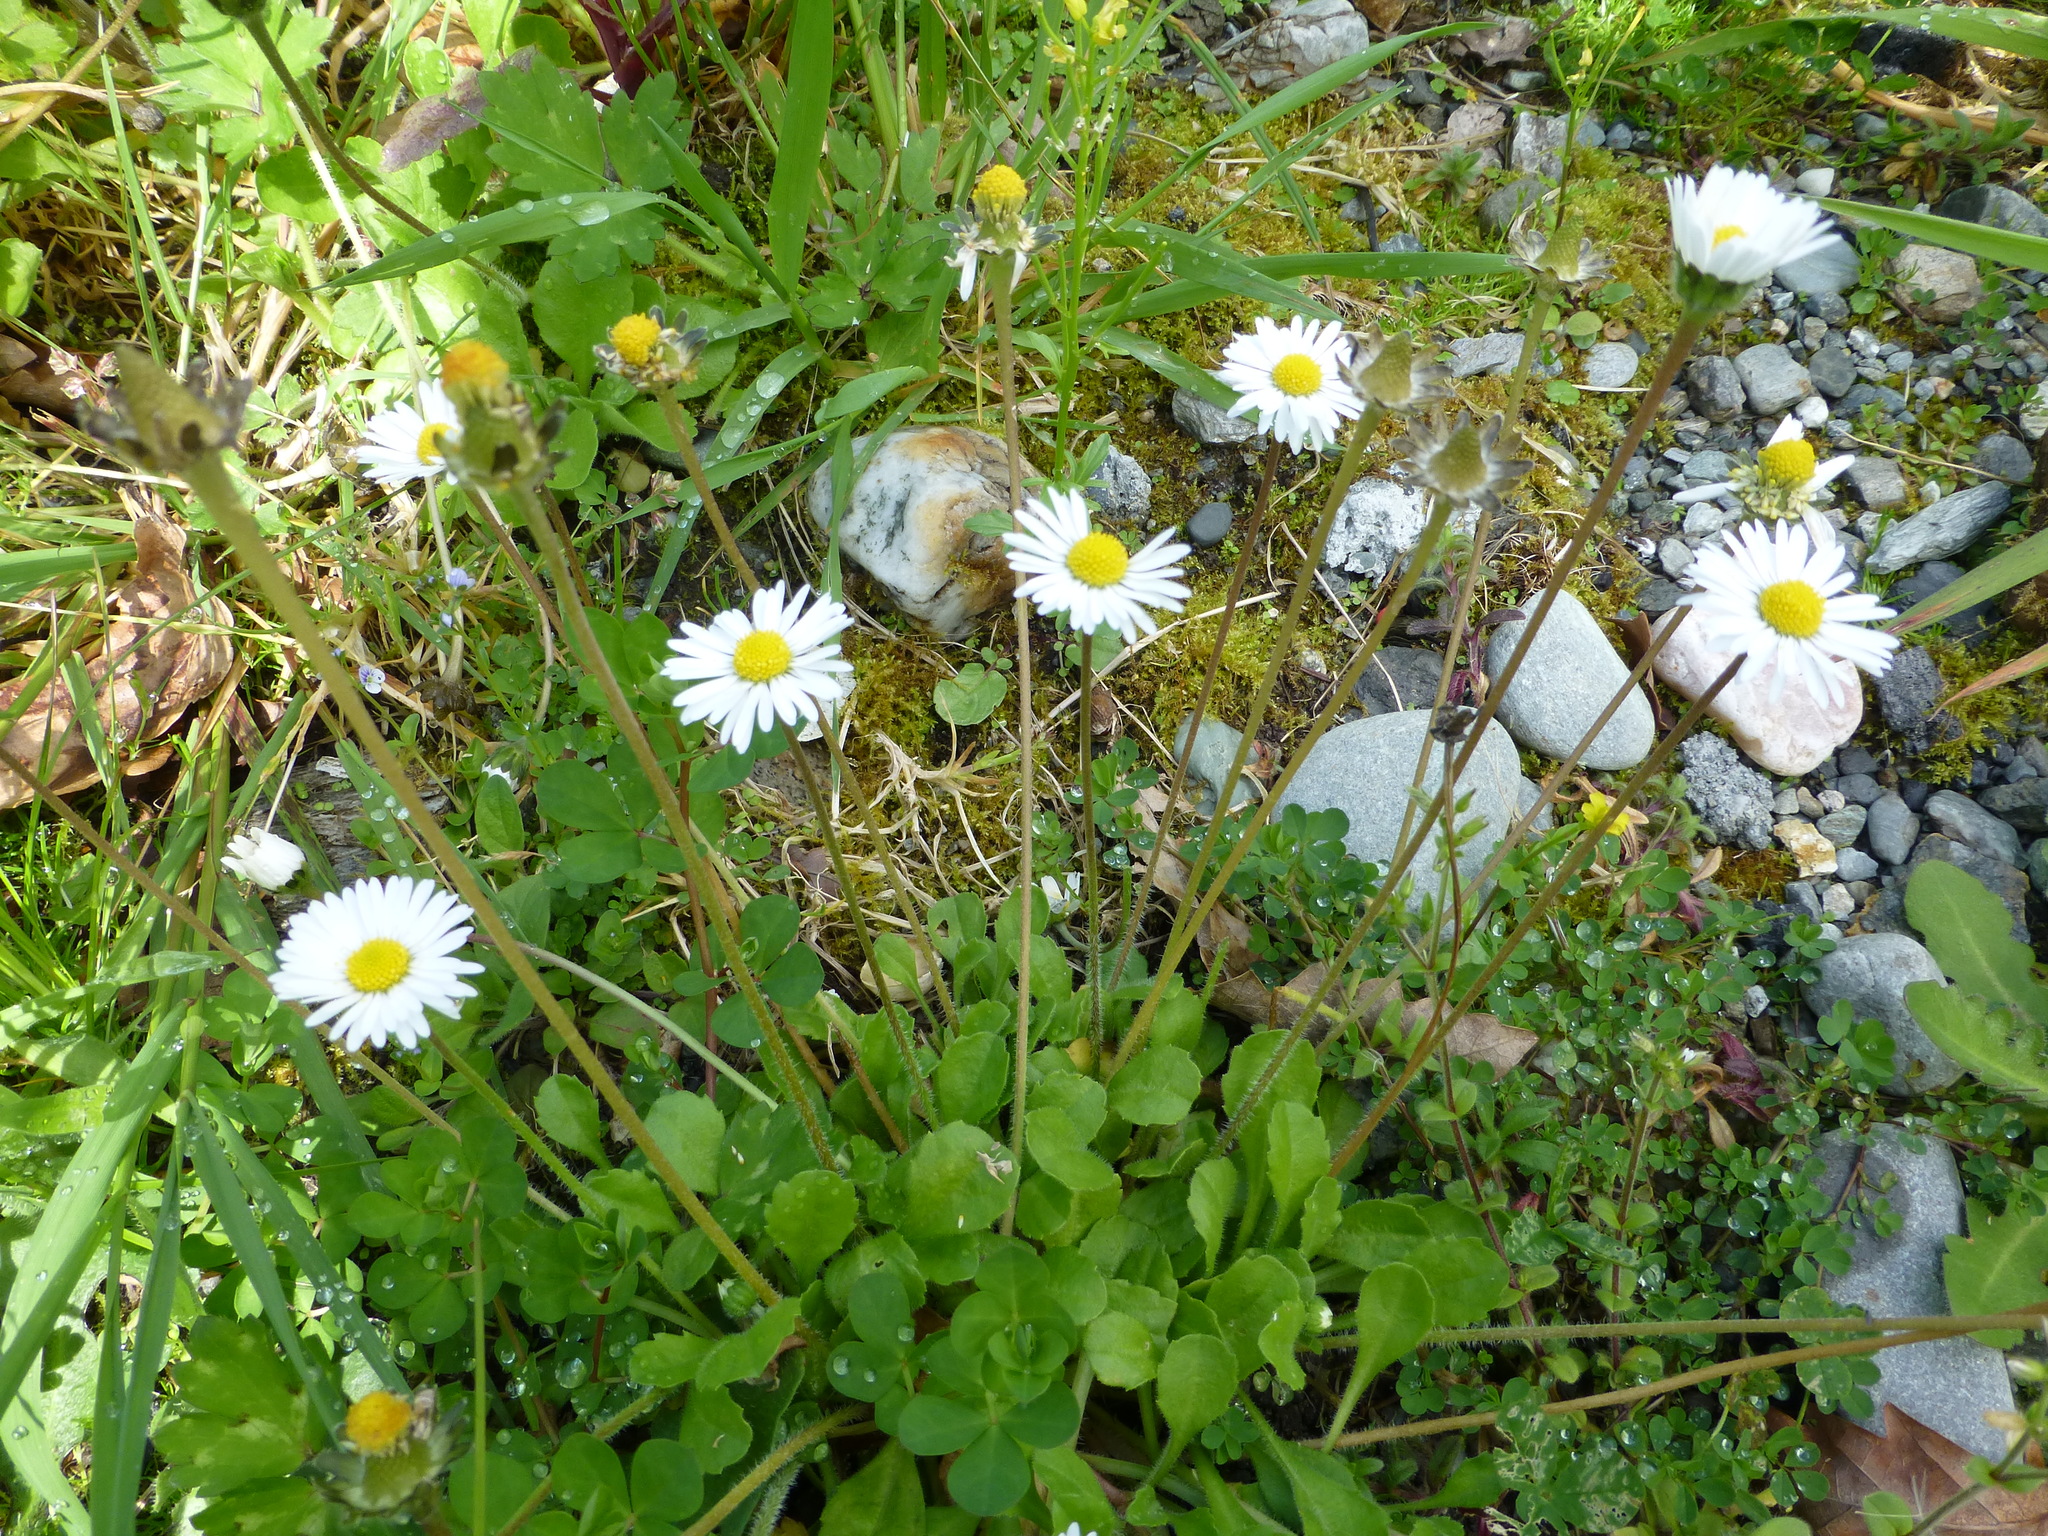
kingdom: Plantae
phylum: Tracheophyta
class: Magnoliopsida
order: Asterales
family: Asteraceae
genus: Bellis
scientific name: Bellis perennis
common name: Lawndaisy
